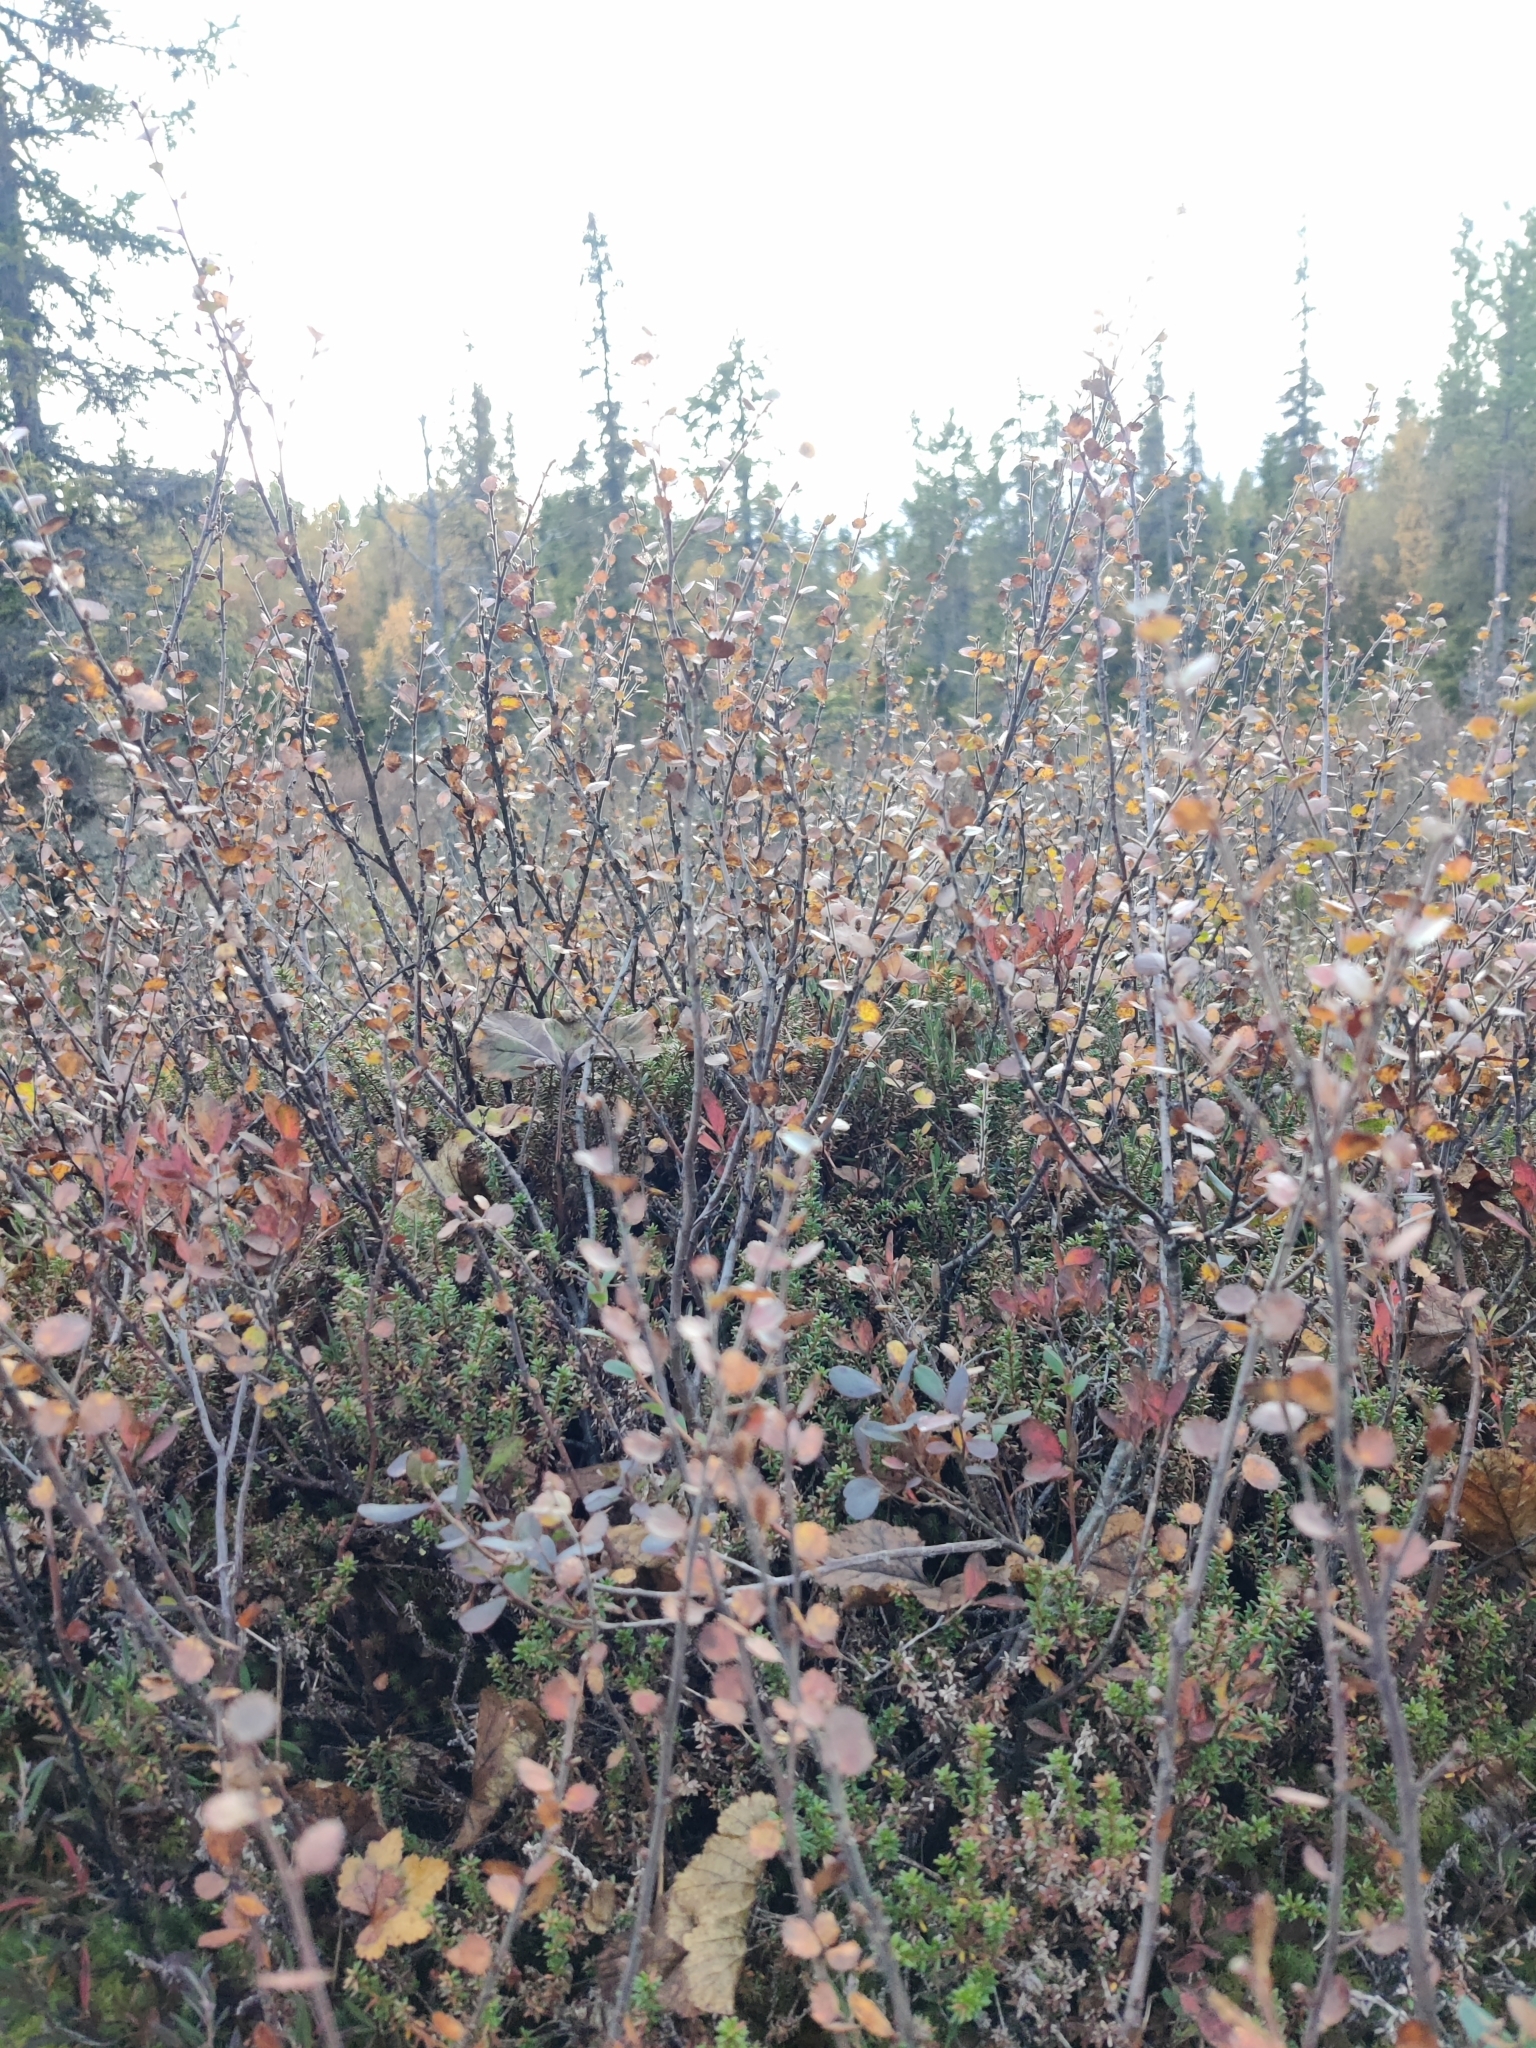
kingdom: Plantae
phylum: Tracheophyta
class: Magnoliopsida
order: Fagales
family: Betulaceae
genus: Betula
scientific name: Betula nana
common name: Arctic dwarf birch
